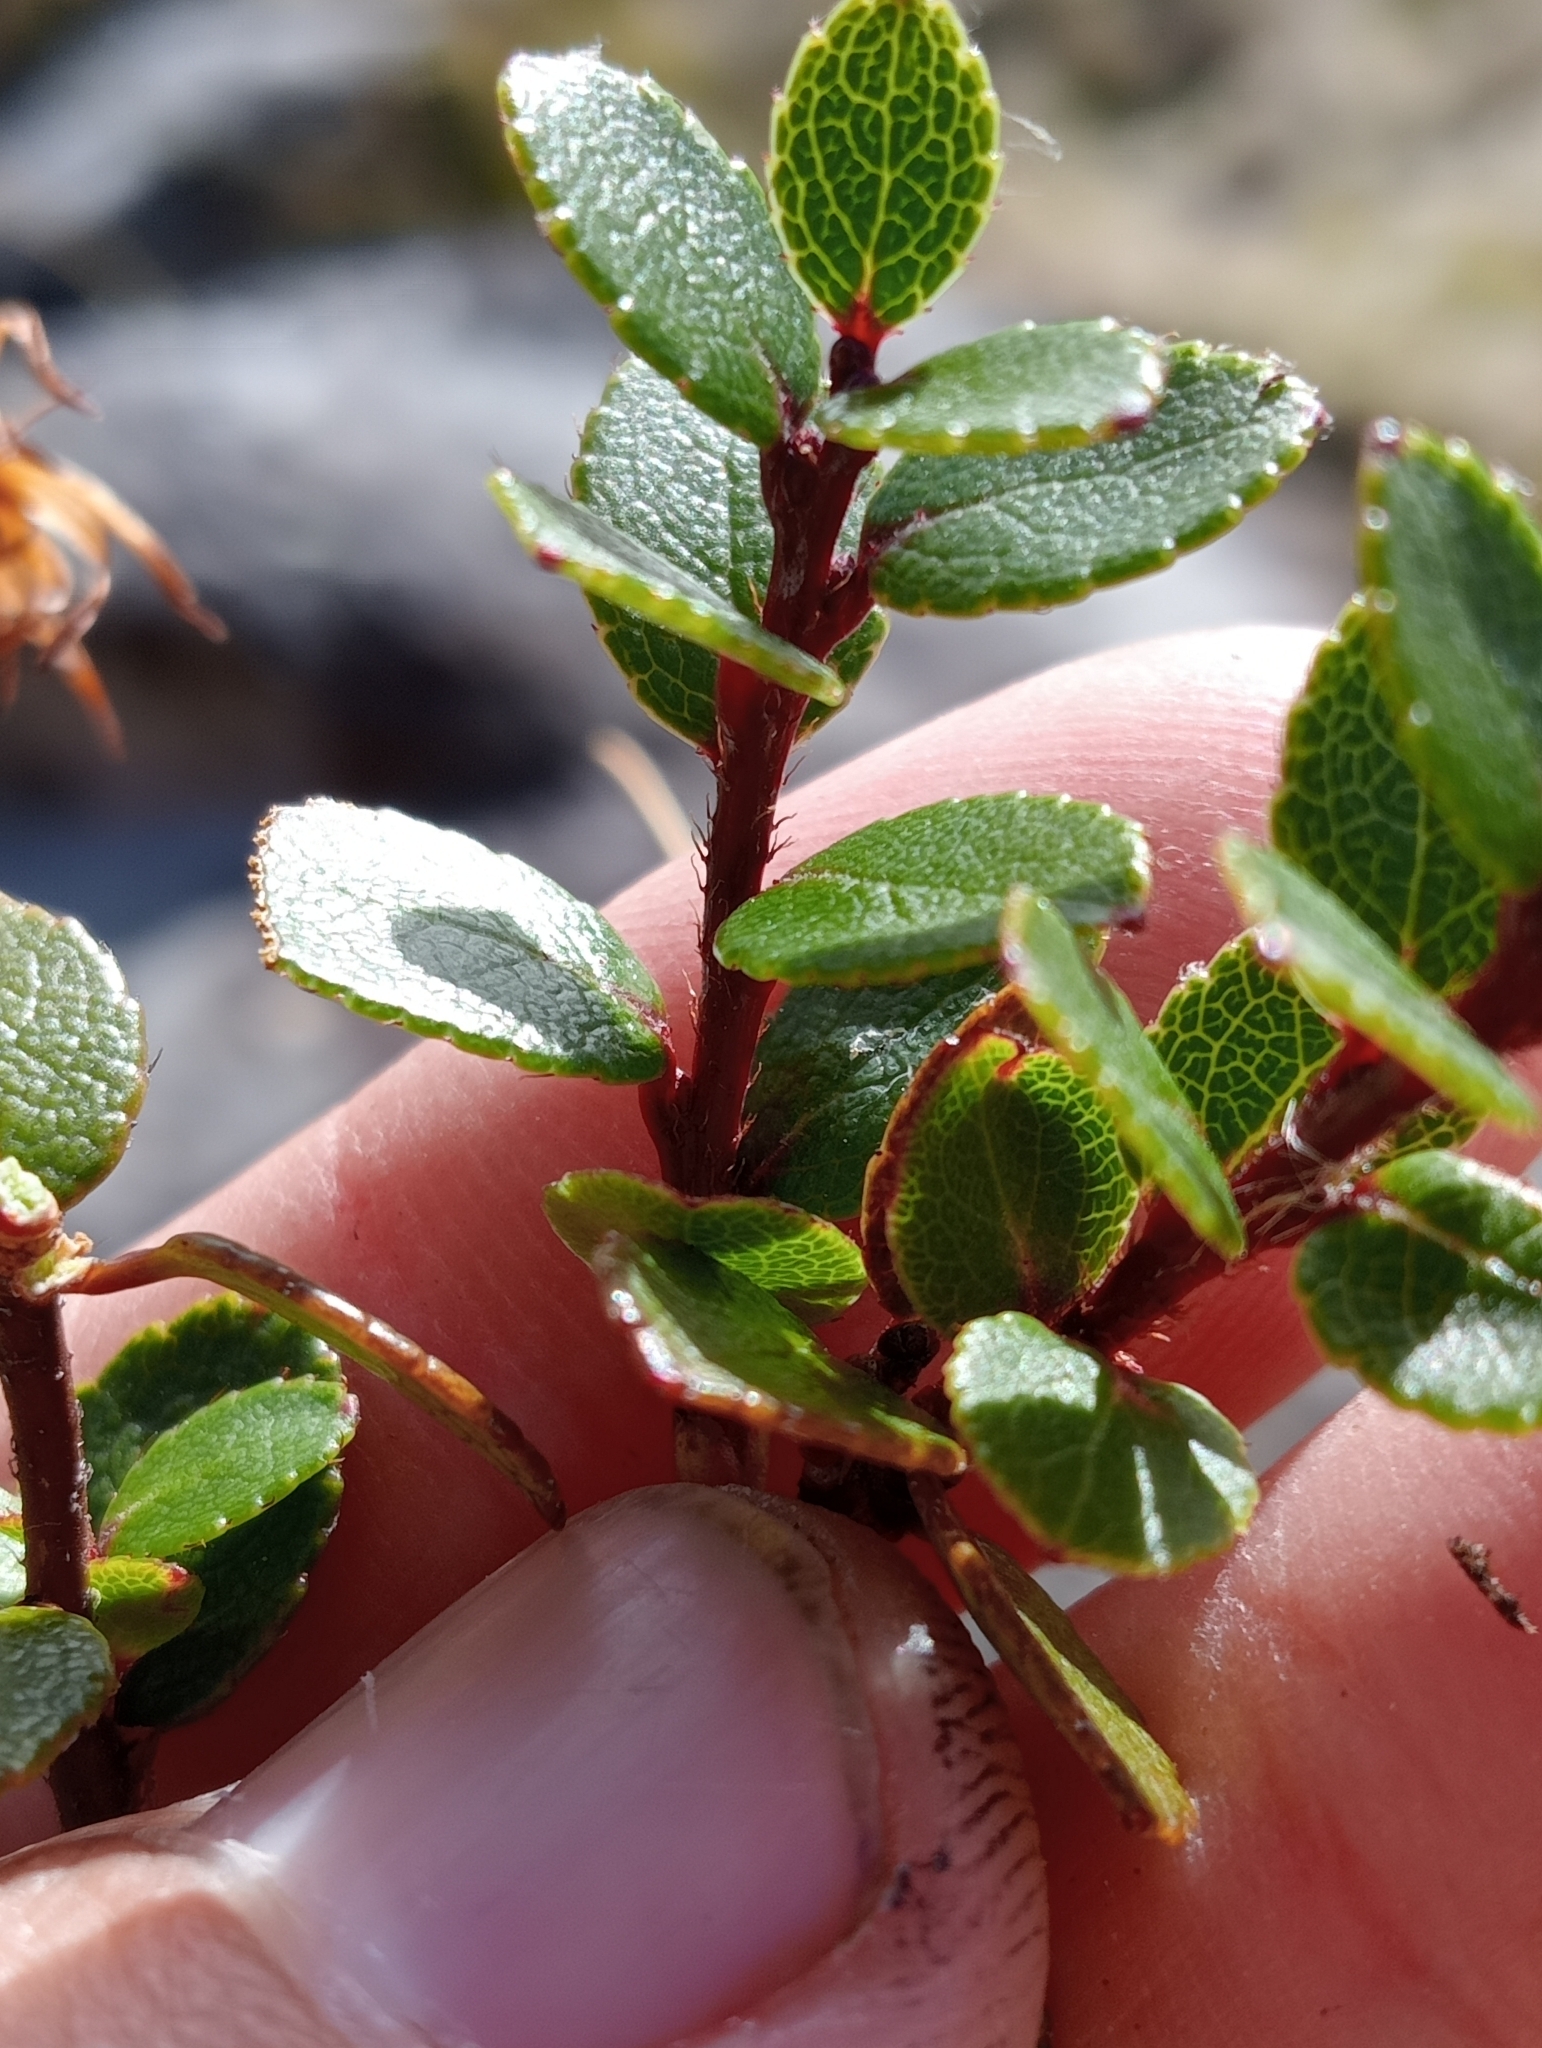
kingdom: Plantae
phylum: Tracheophyta
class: Magnoliopsida
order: Ericales
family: Ericaceae
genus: Gaultheria
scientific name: Gaultheria crassa
